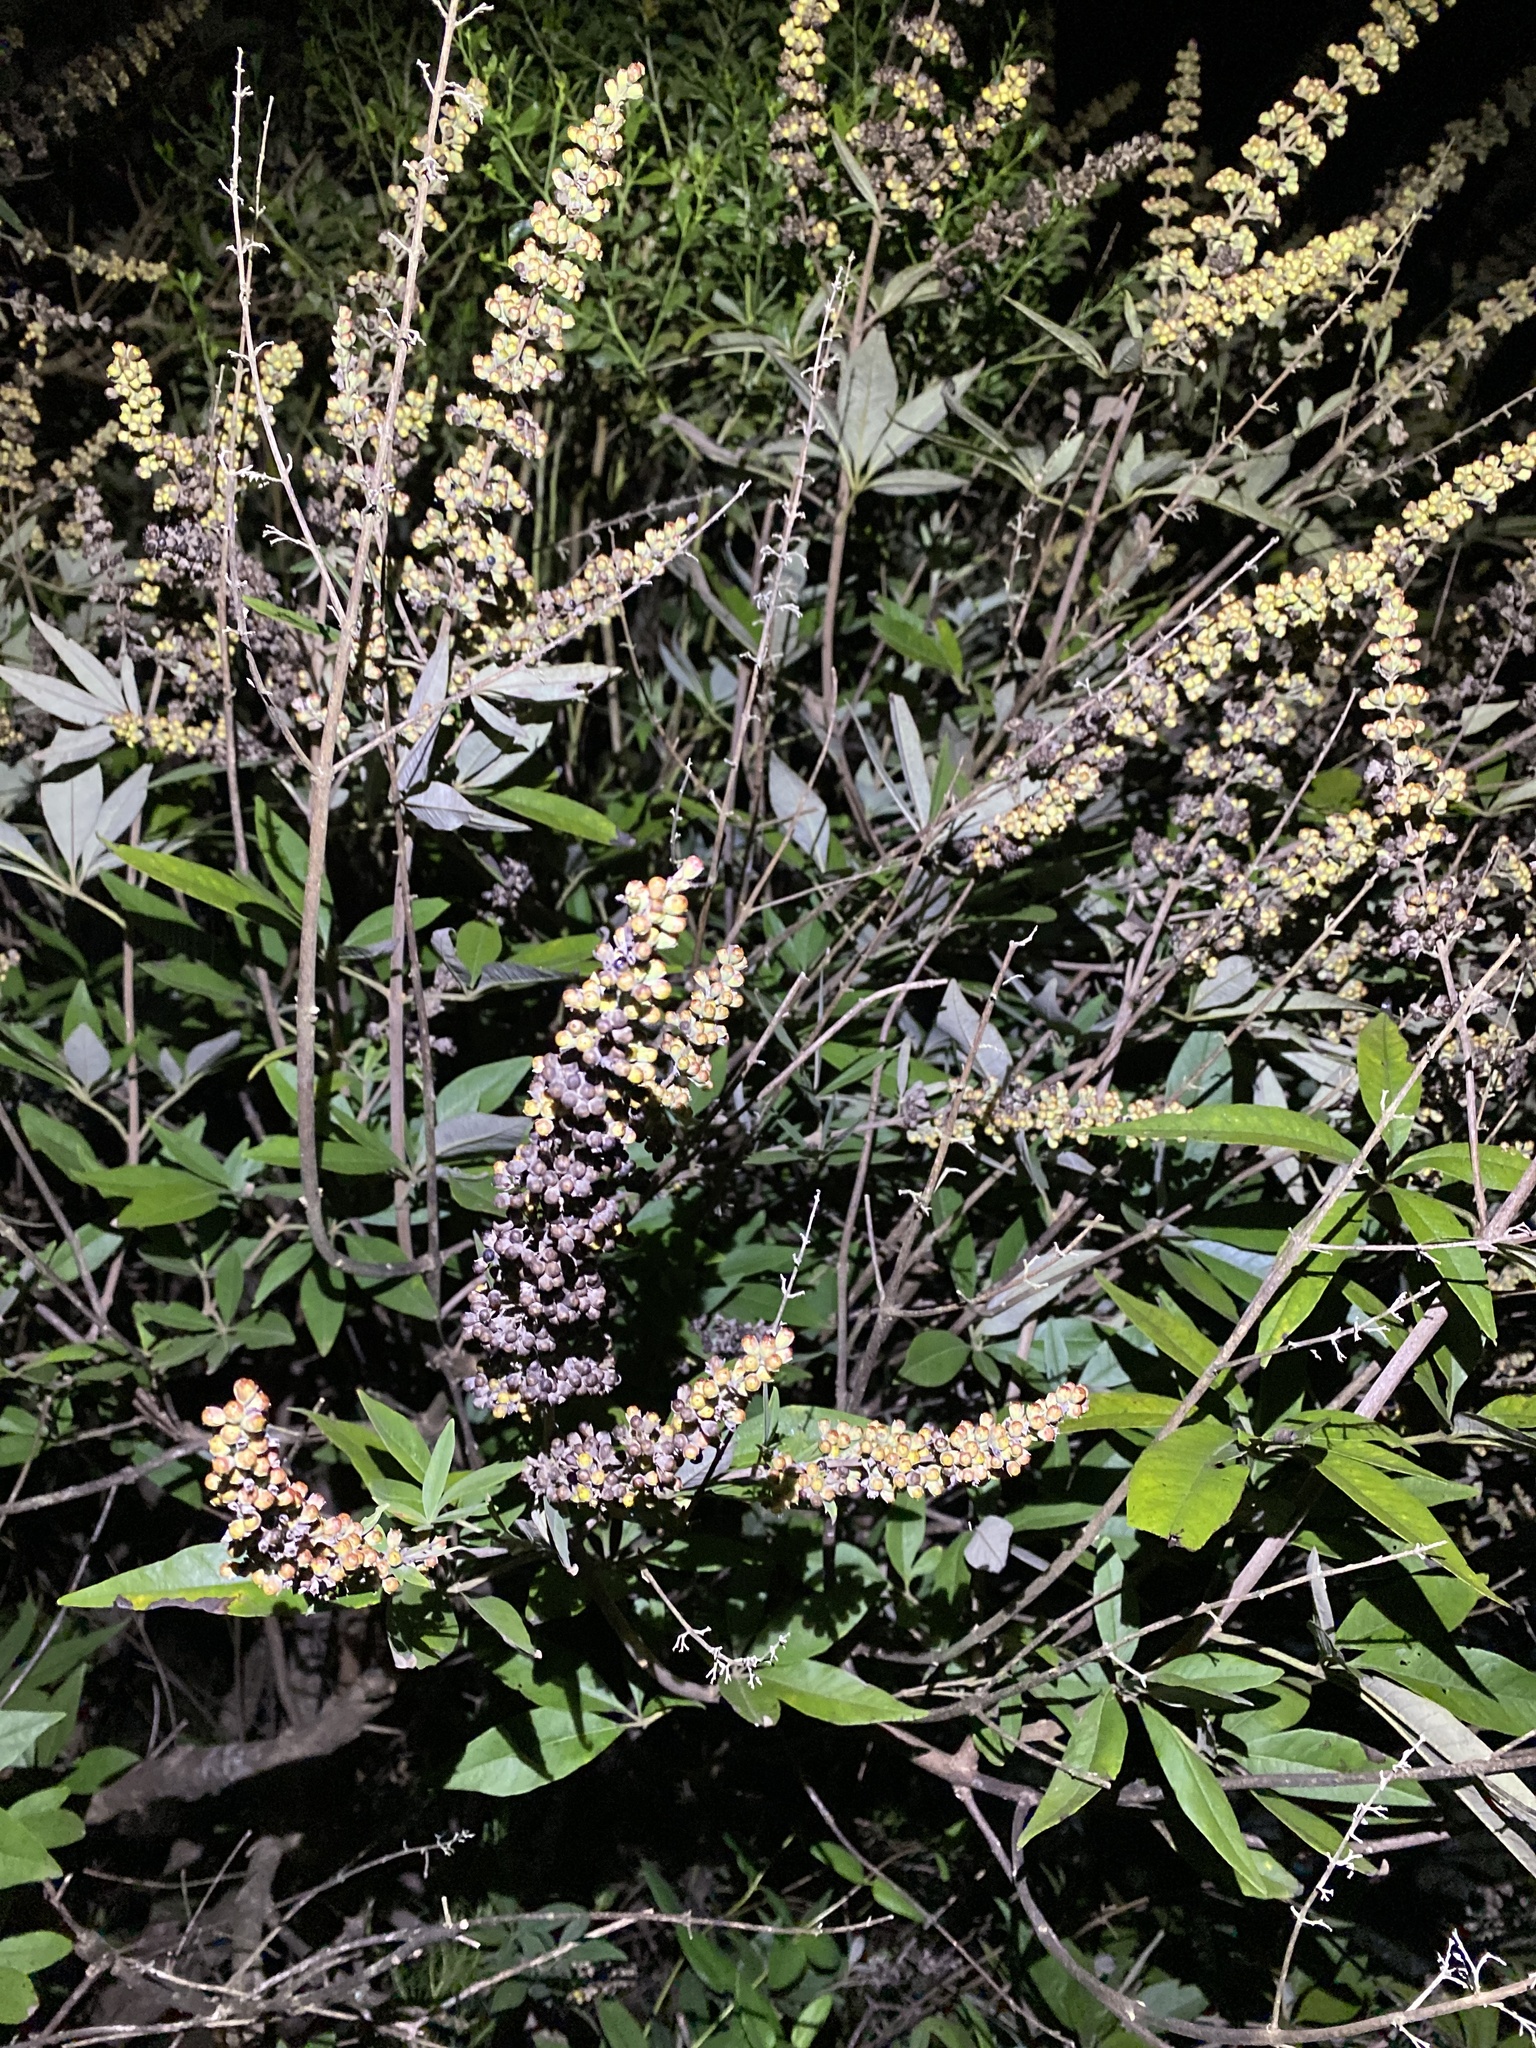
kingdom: Plantae
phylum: Tracheophyta
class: Magnoliopsida
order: Lamiales
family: Lamiaceae
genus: Vitex
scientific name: Vitex agnus-castus
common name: Chasteberry
